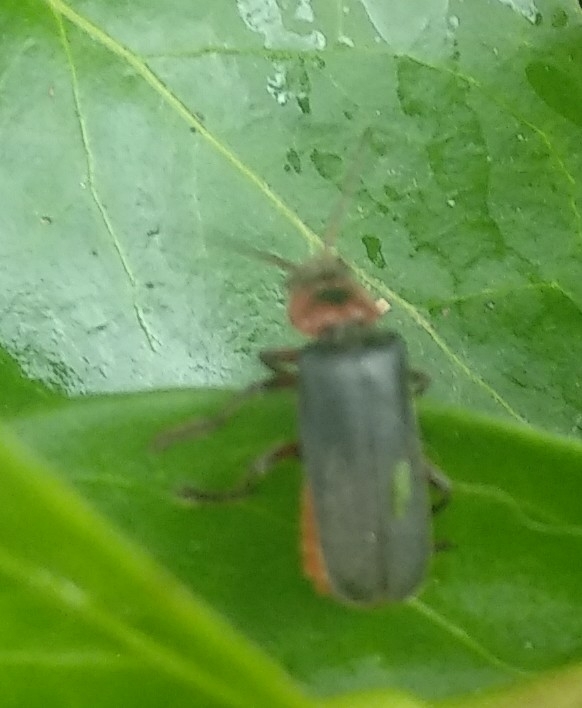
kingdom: Animalia
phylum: Arthropoda
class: Insecta
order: Coleoptera
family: Cantharidae
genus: Cantharis
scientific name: Cantharis rustica
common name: Soldier beetle
